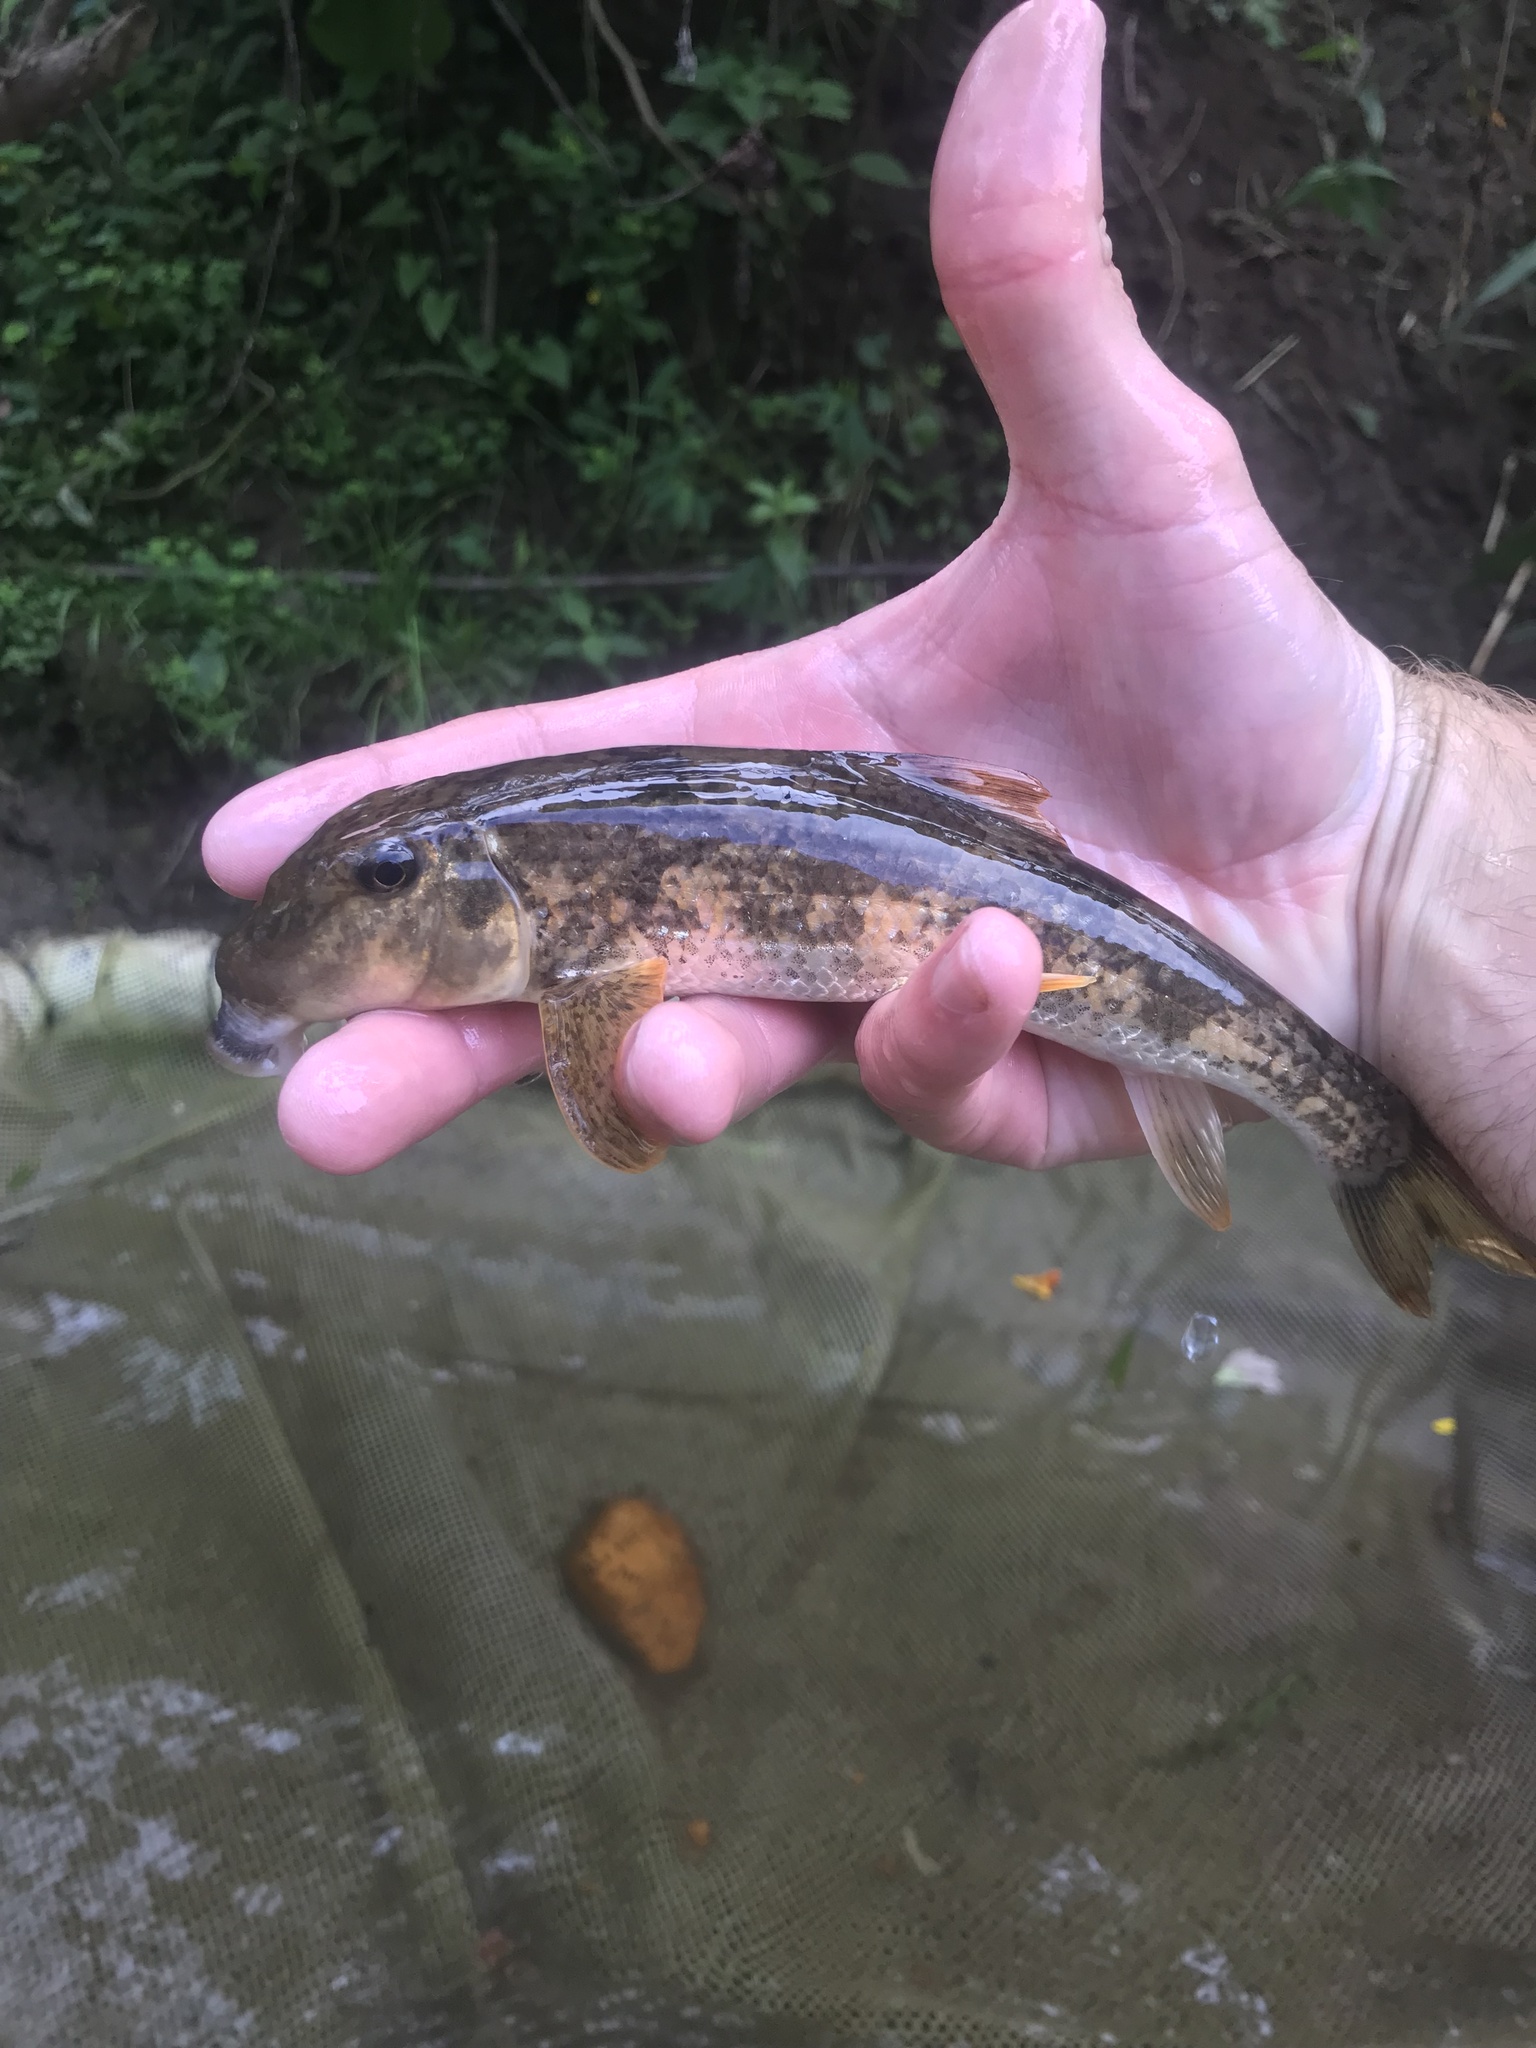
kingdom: Animalia
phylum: Chordata
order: Cypriniformes
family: Catostomidae
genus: Hypentelium
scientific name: Hypentelium nigricans
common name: Northern hog sucker
